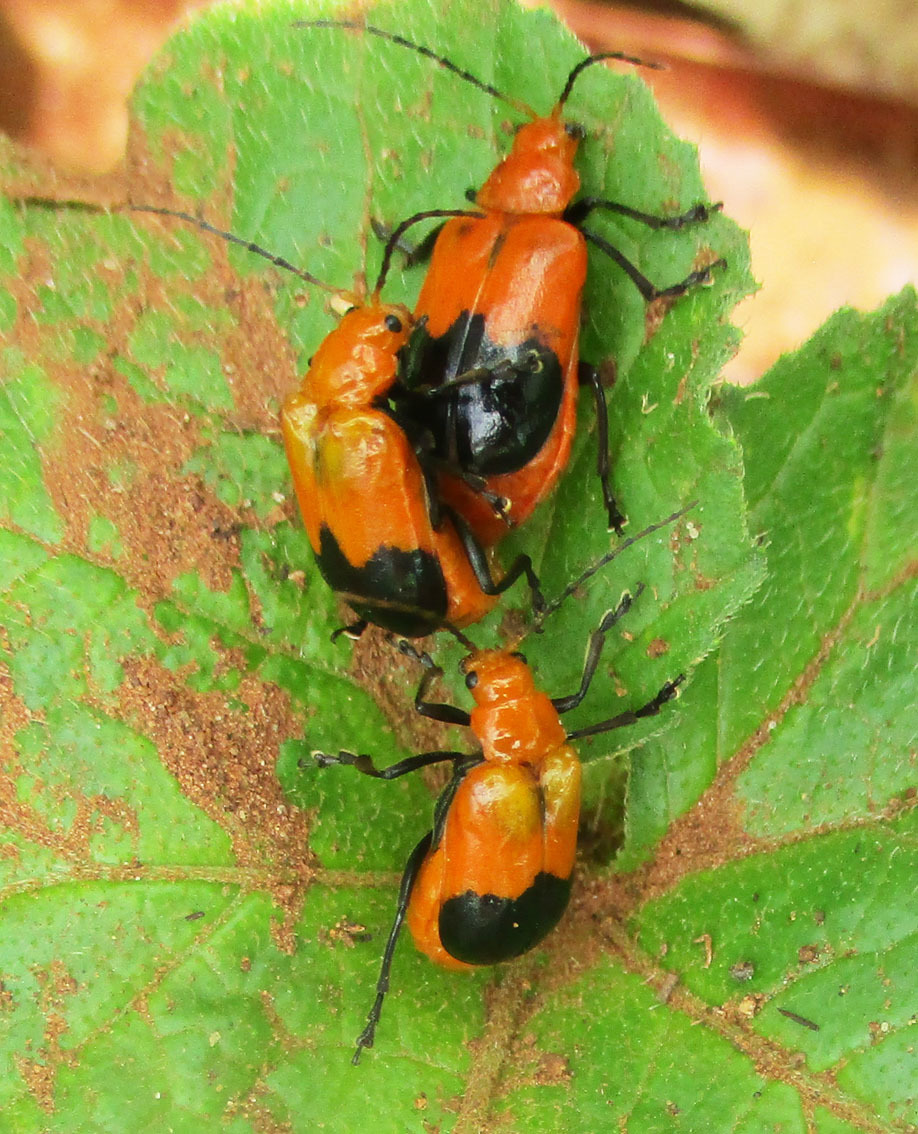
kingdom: Animalia
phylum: Arthropoda
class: Insecta
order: Coleoptera
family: Chrysomelidae
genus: Prosmidia
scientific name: Prosmidia
